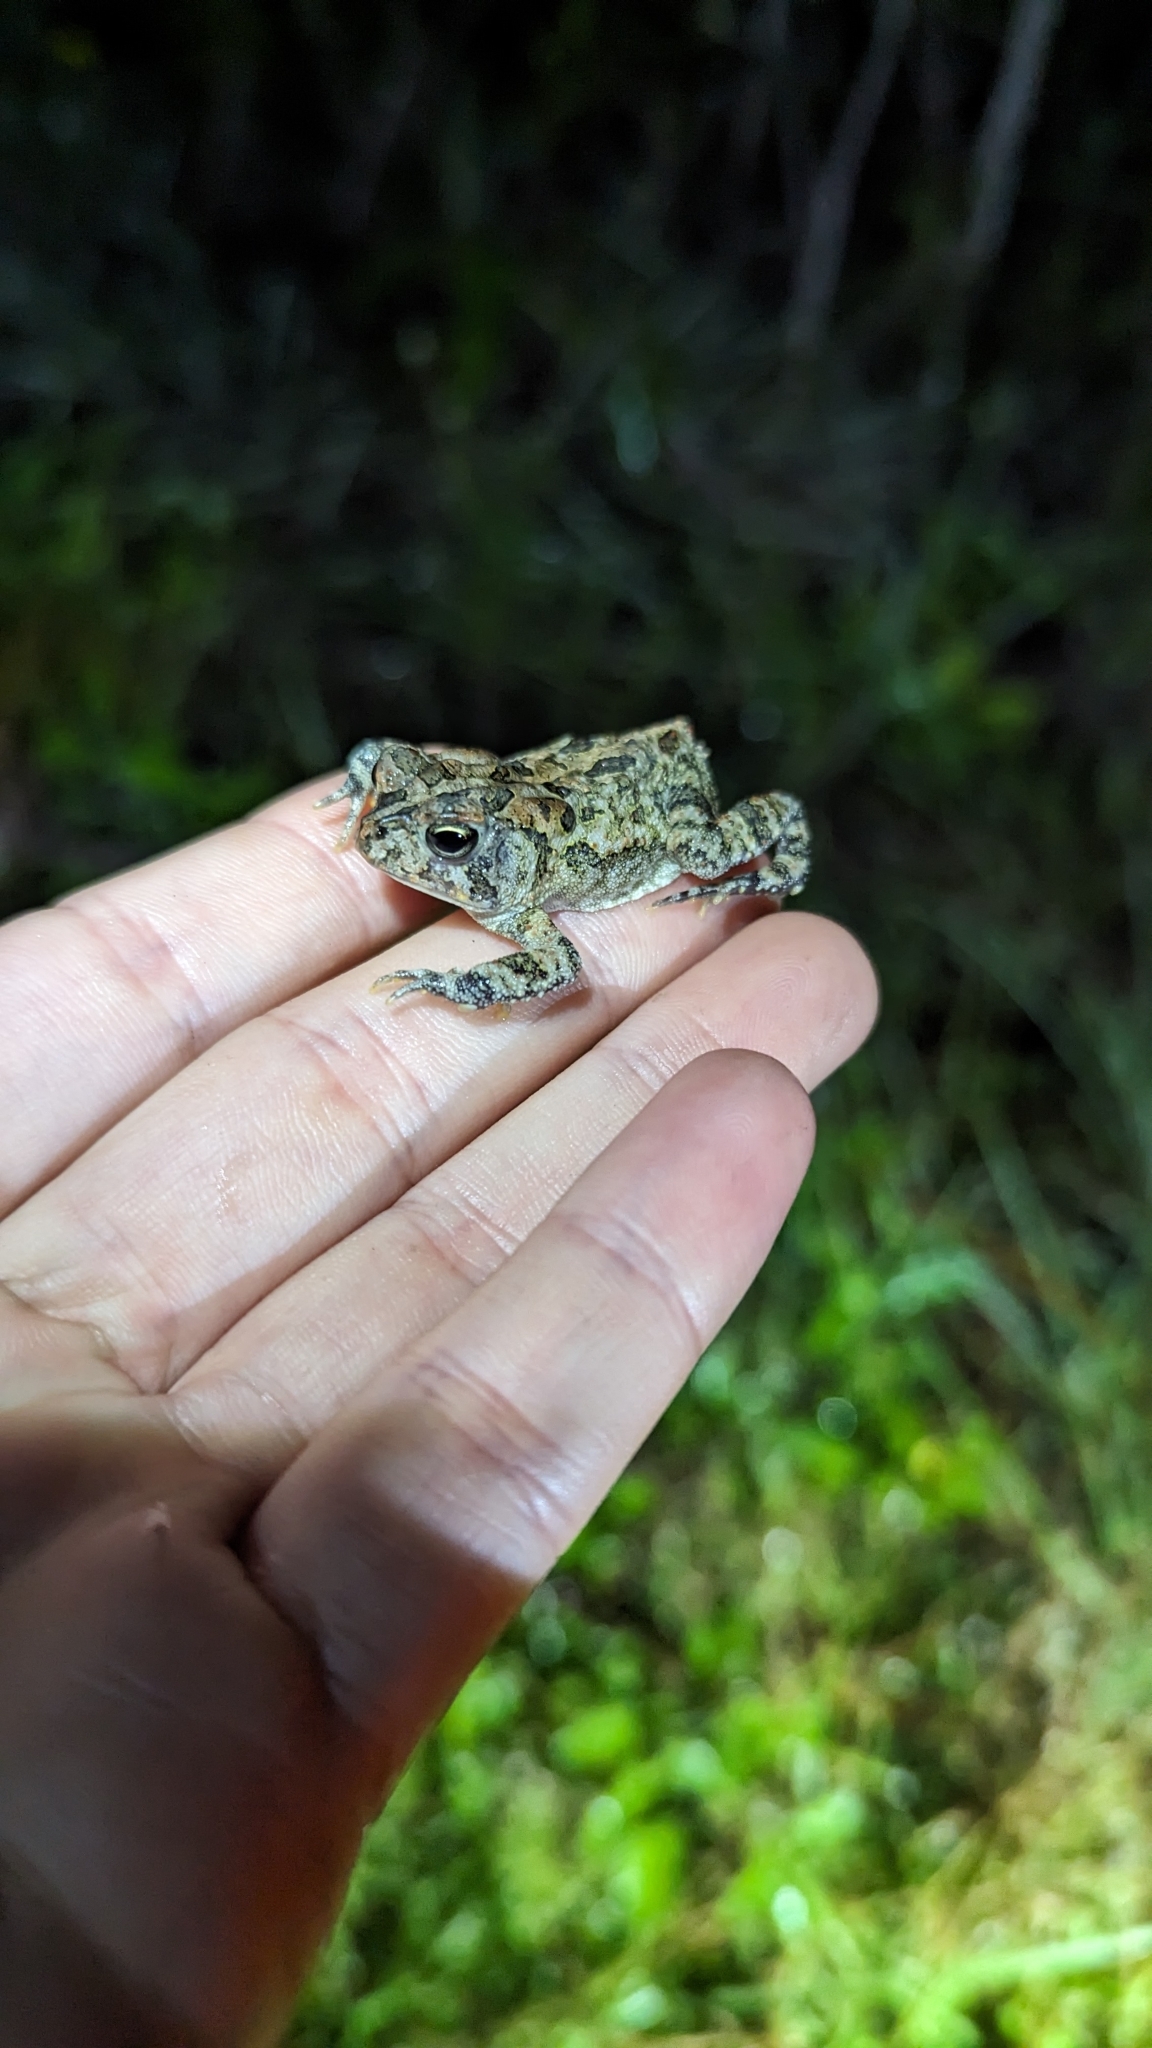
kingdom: Animalia
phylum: Chordata
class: Amphibia
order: Anura
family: Bufonidae
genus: Anaxyrus
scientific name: Anaxyrus terrestris
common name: Southern toad
